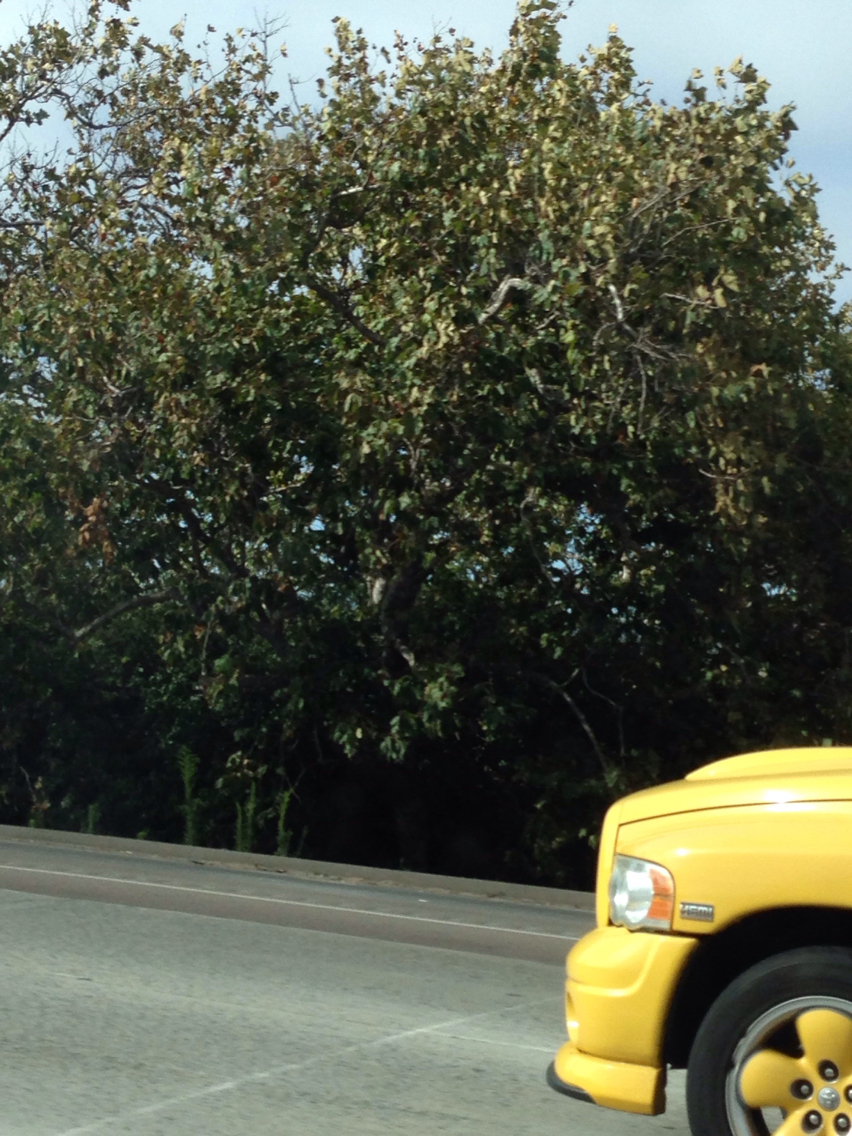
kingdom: Plantae
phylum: Tracheophyta
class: Magnoliopsida
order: Proteales
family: Platanaceae
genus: Platanus
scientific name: Platanus racemosa
